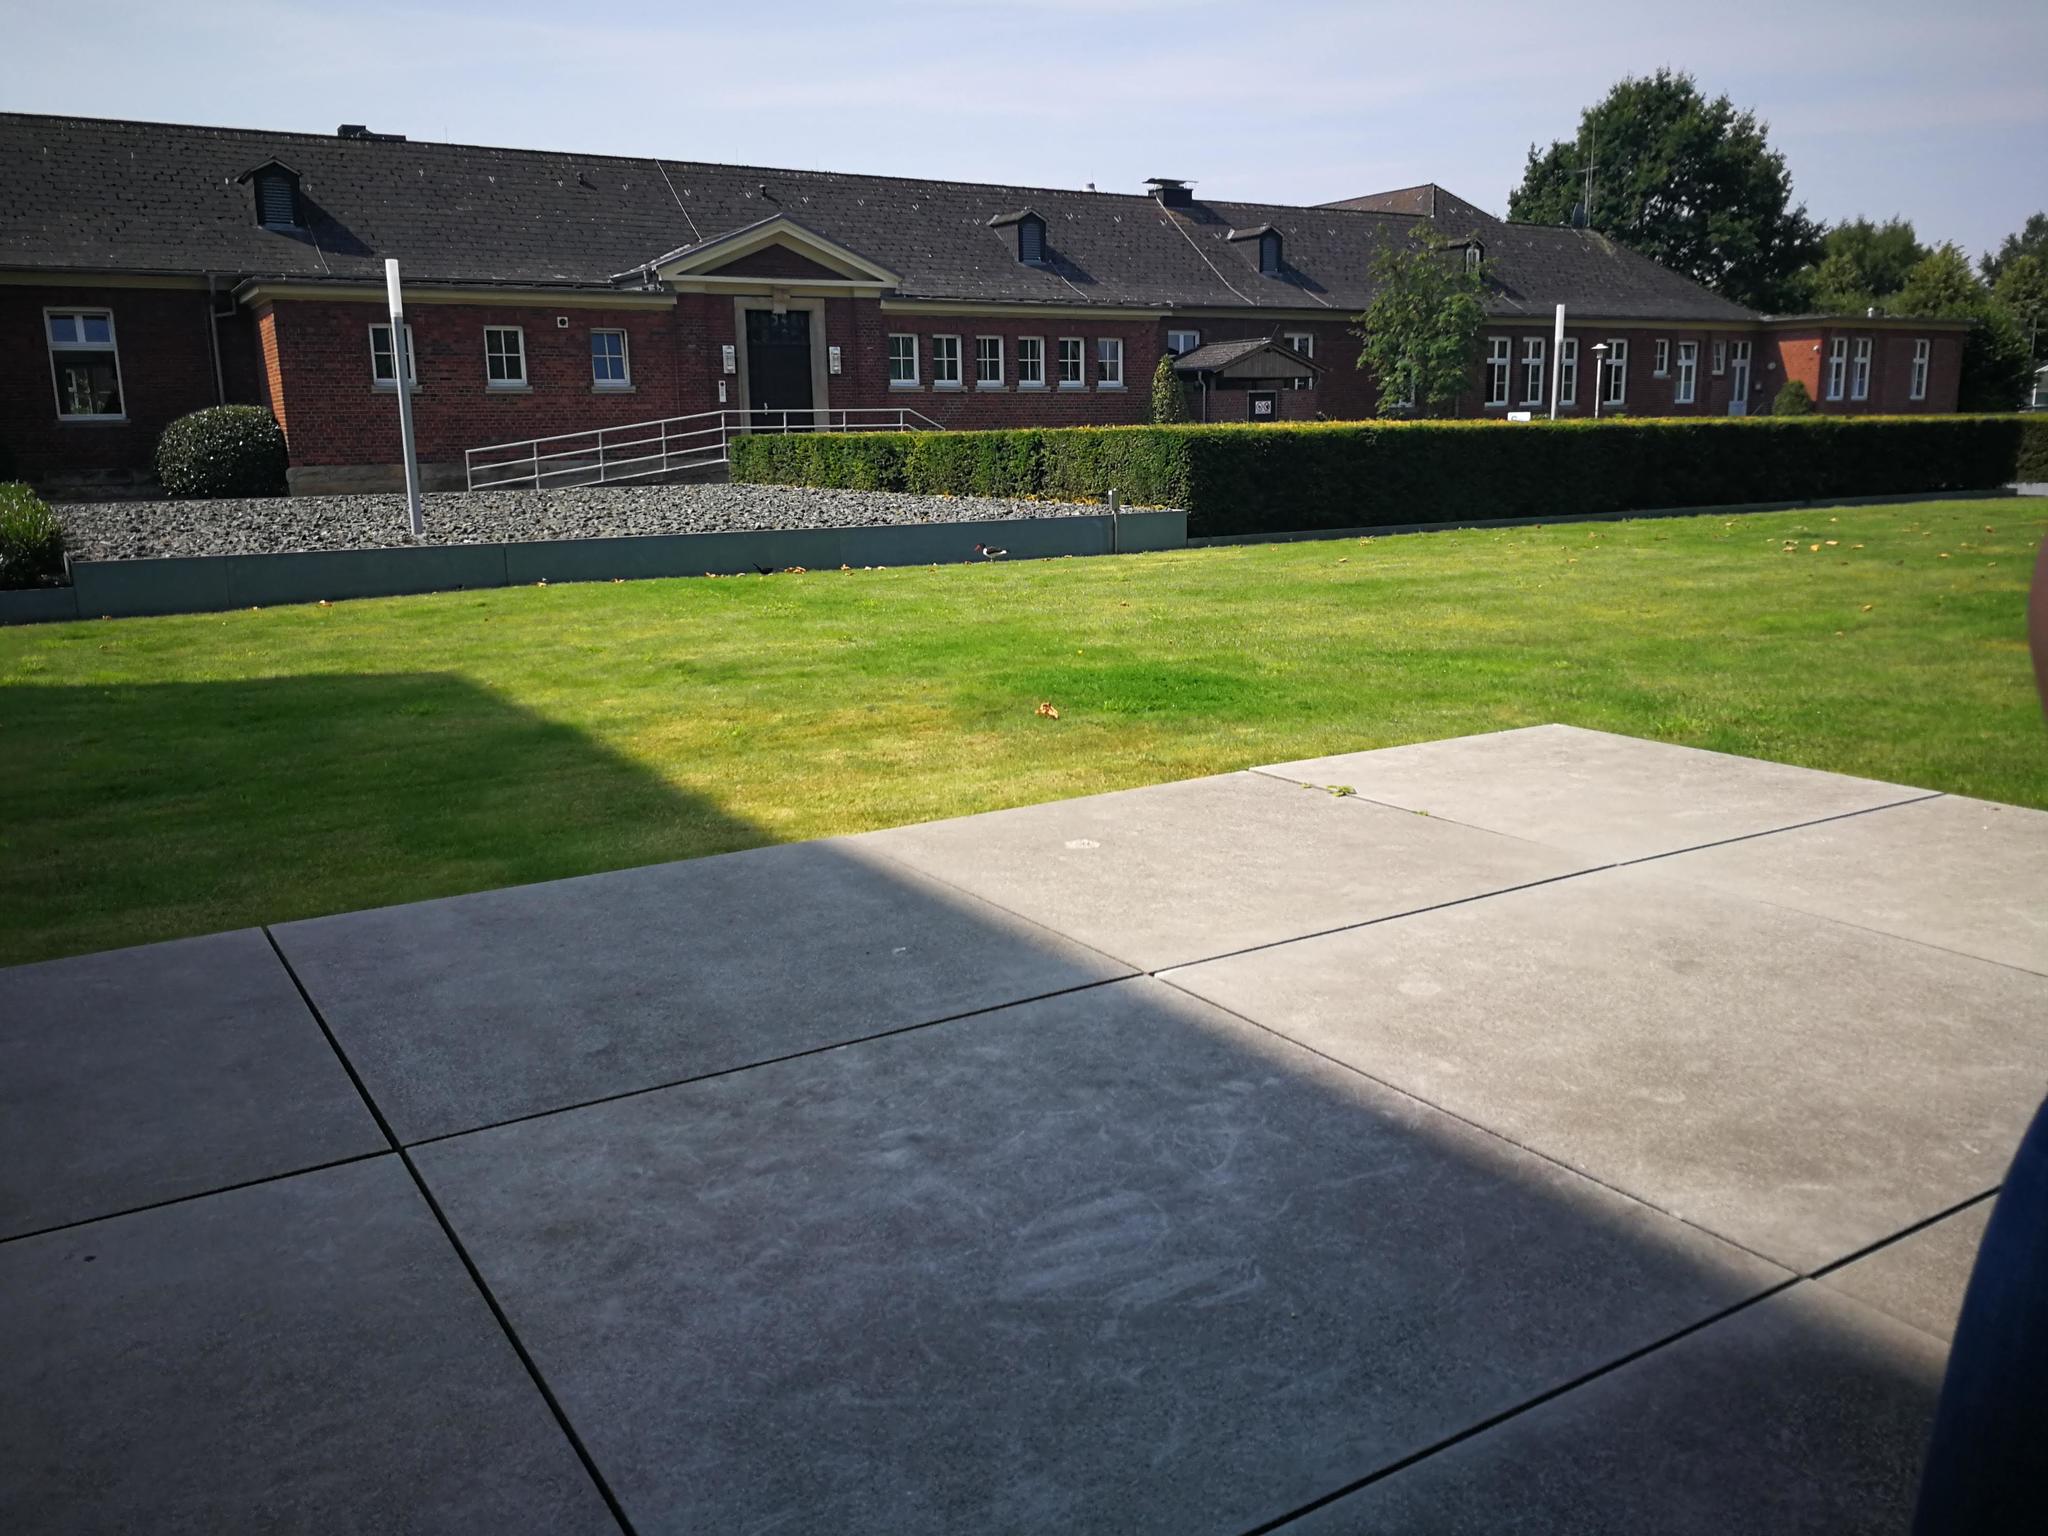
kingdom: Animalia
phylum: Chordata
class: Aves
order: Charadriiformes
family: Haematopodidae
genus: Haematopus
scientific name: Haematopus ostralegus
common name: Eurasian oystercatcher
